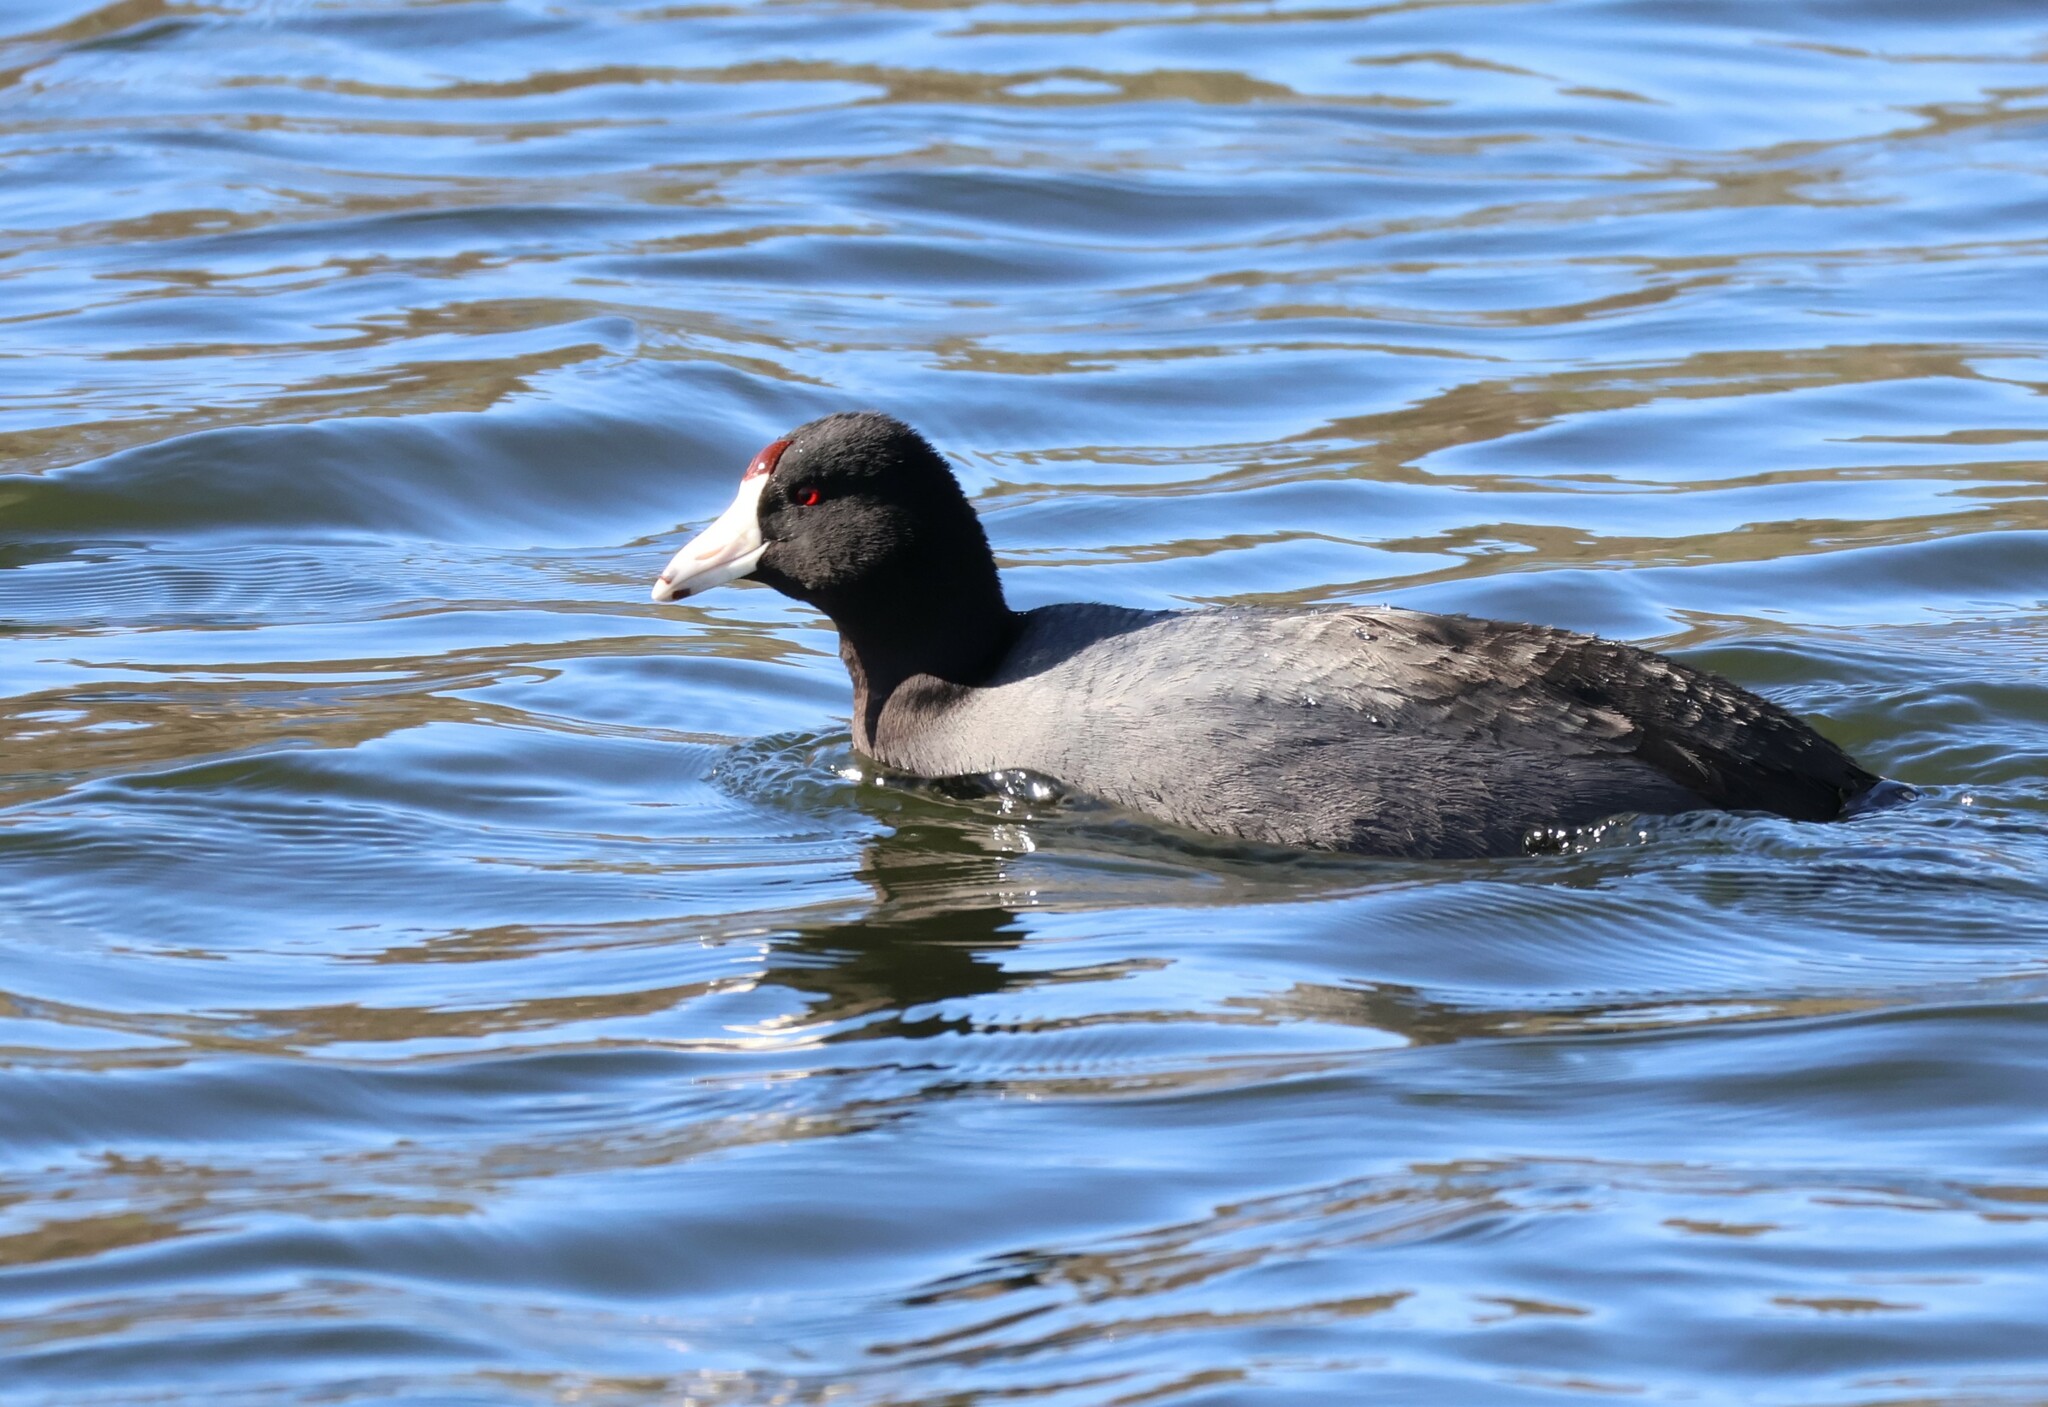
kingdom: Animalia
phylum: Chordata
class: Aves
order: Gruiformes
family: Rallidae
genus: Fulica
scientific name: Fulica americana
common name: American coot
